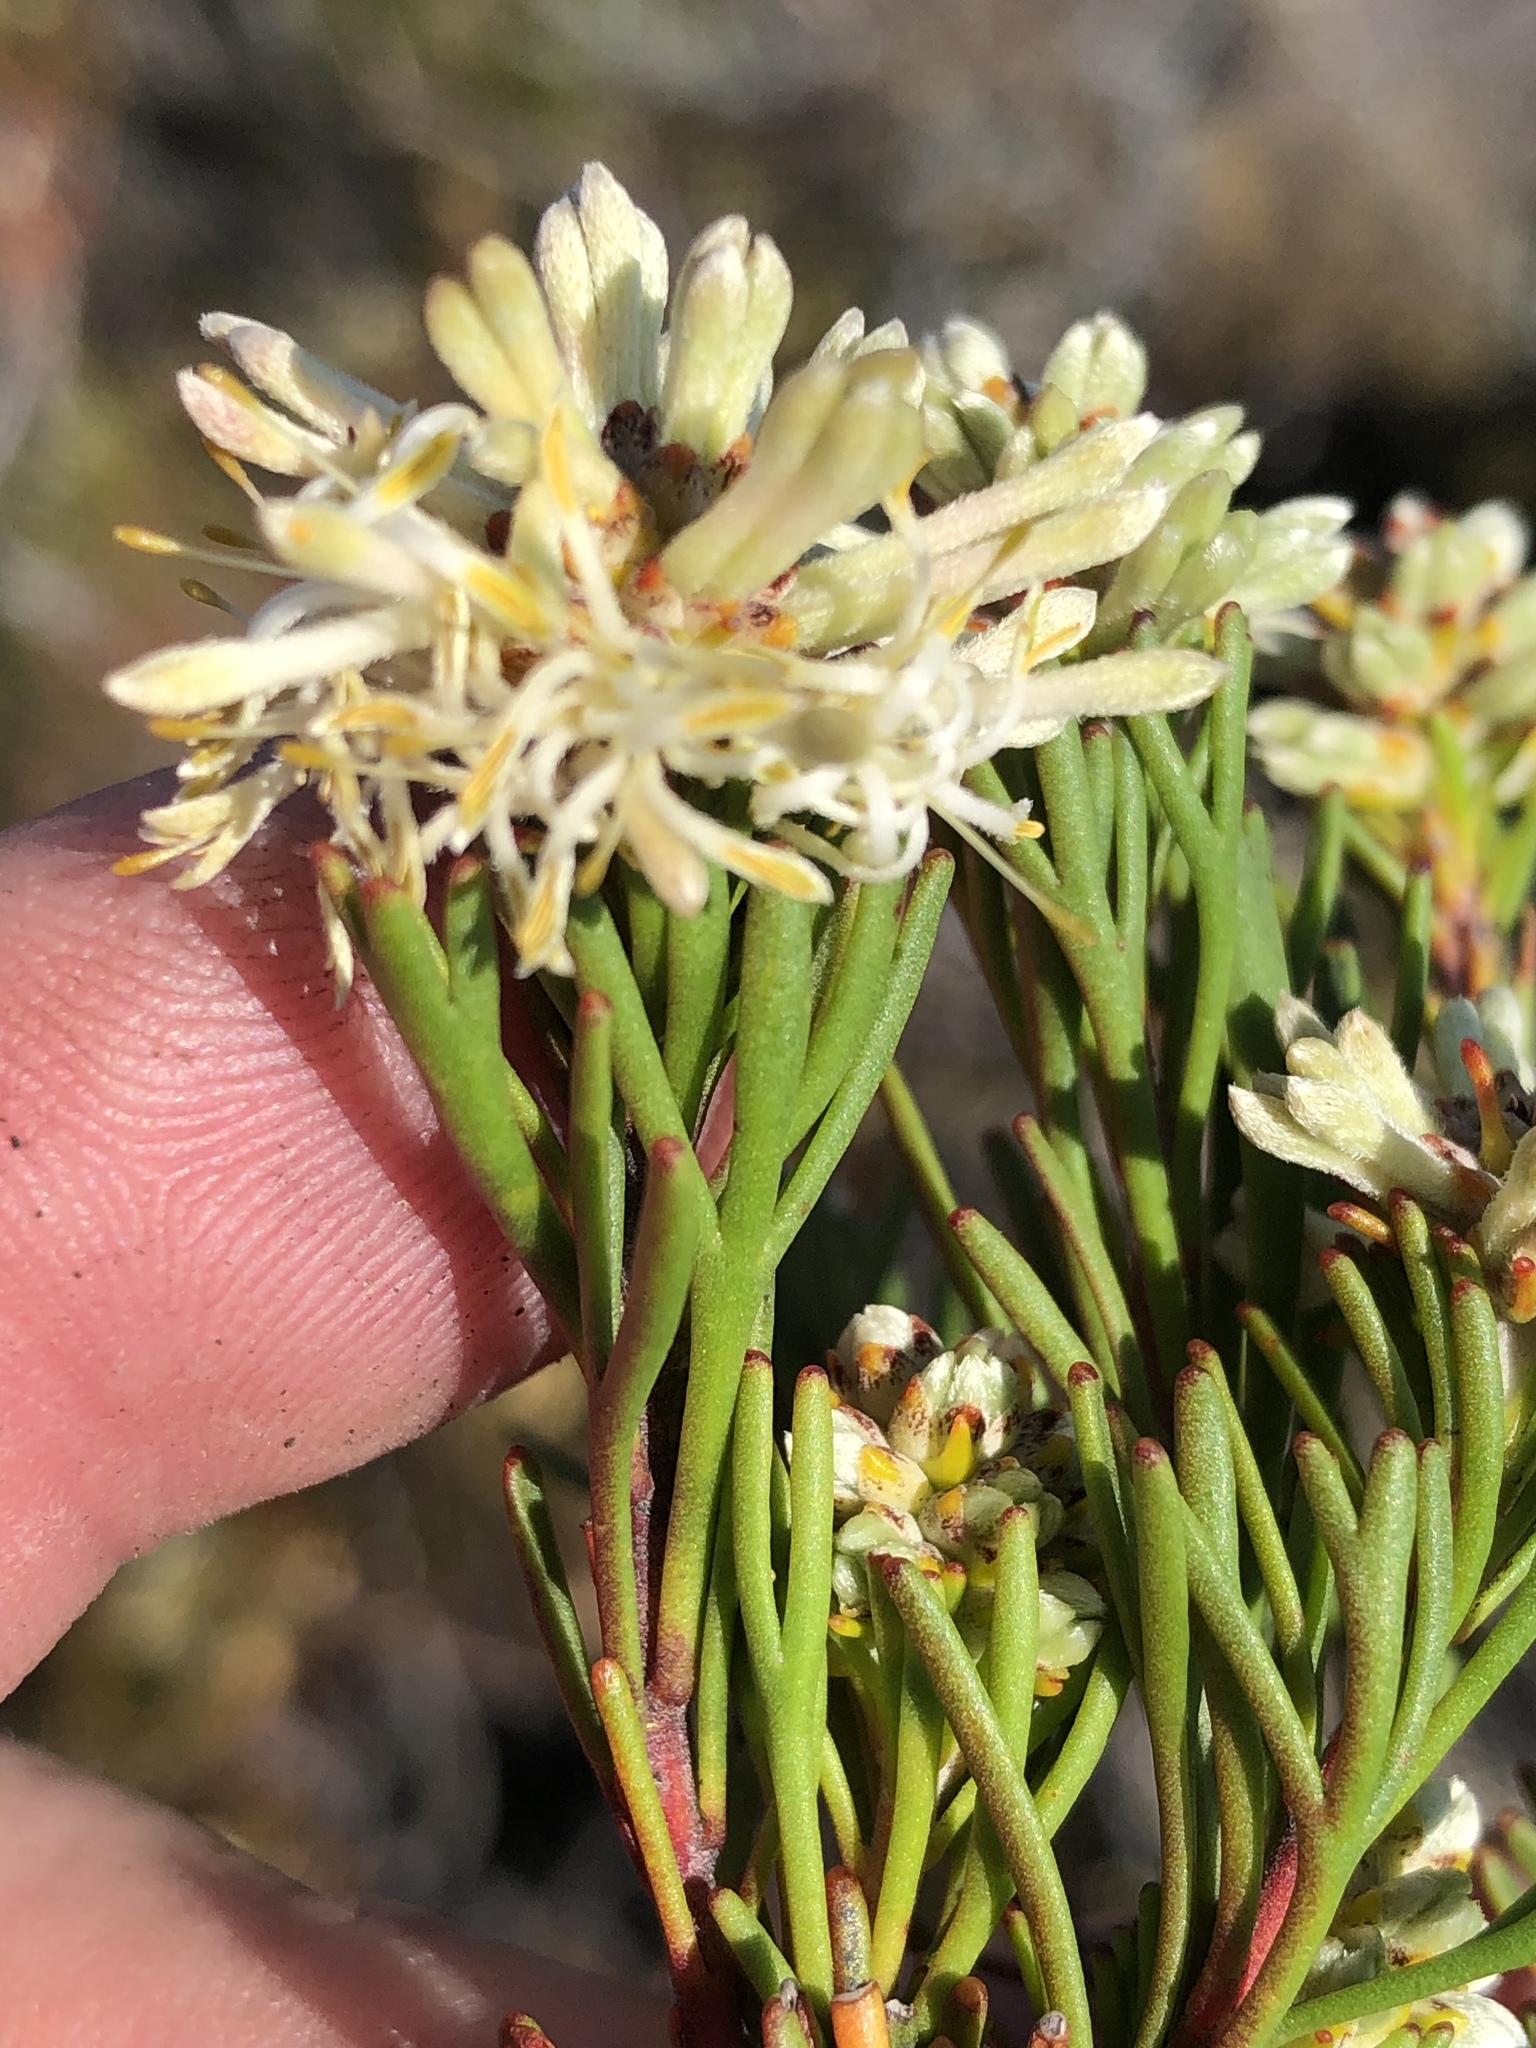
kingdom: Plantae
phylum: Tracheophyta
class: Magnoliopsida
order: Proteales
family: Proteaceae
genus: Paranomus
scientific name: Paranomus esterhuyseniae
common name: Kouga sceptre
